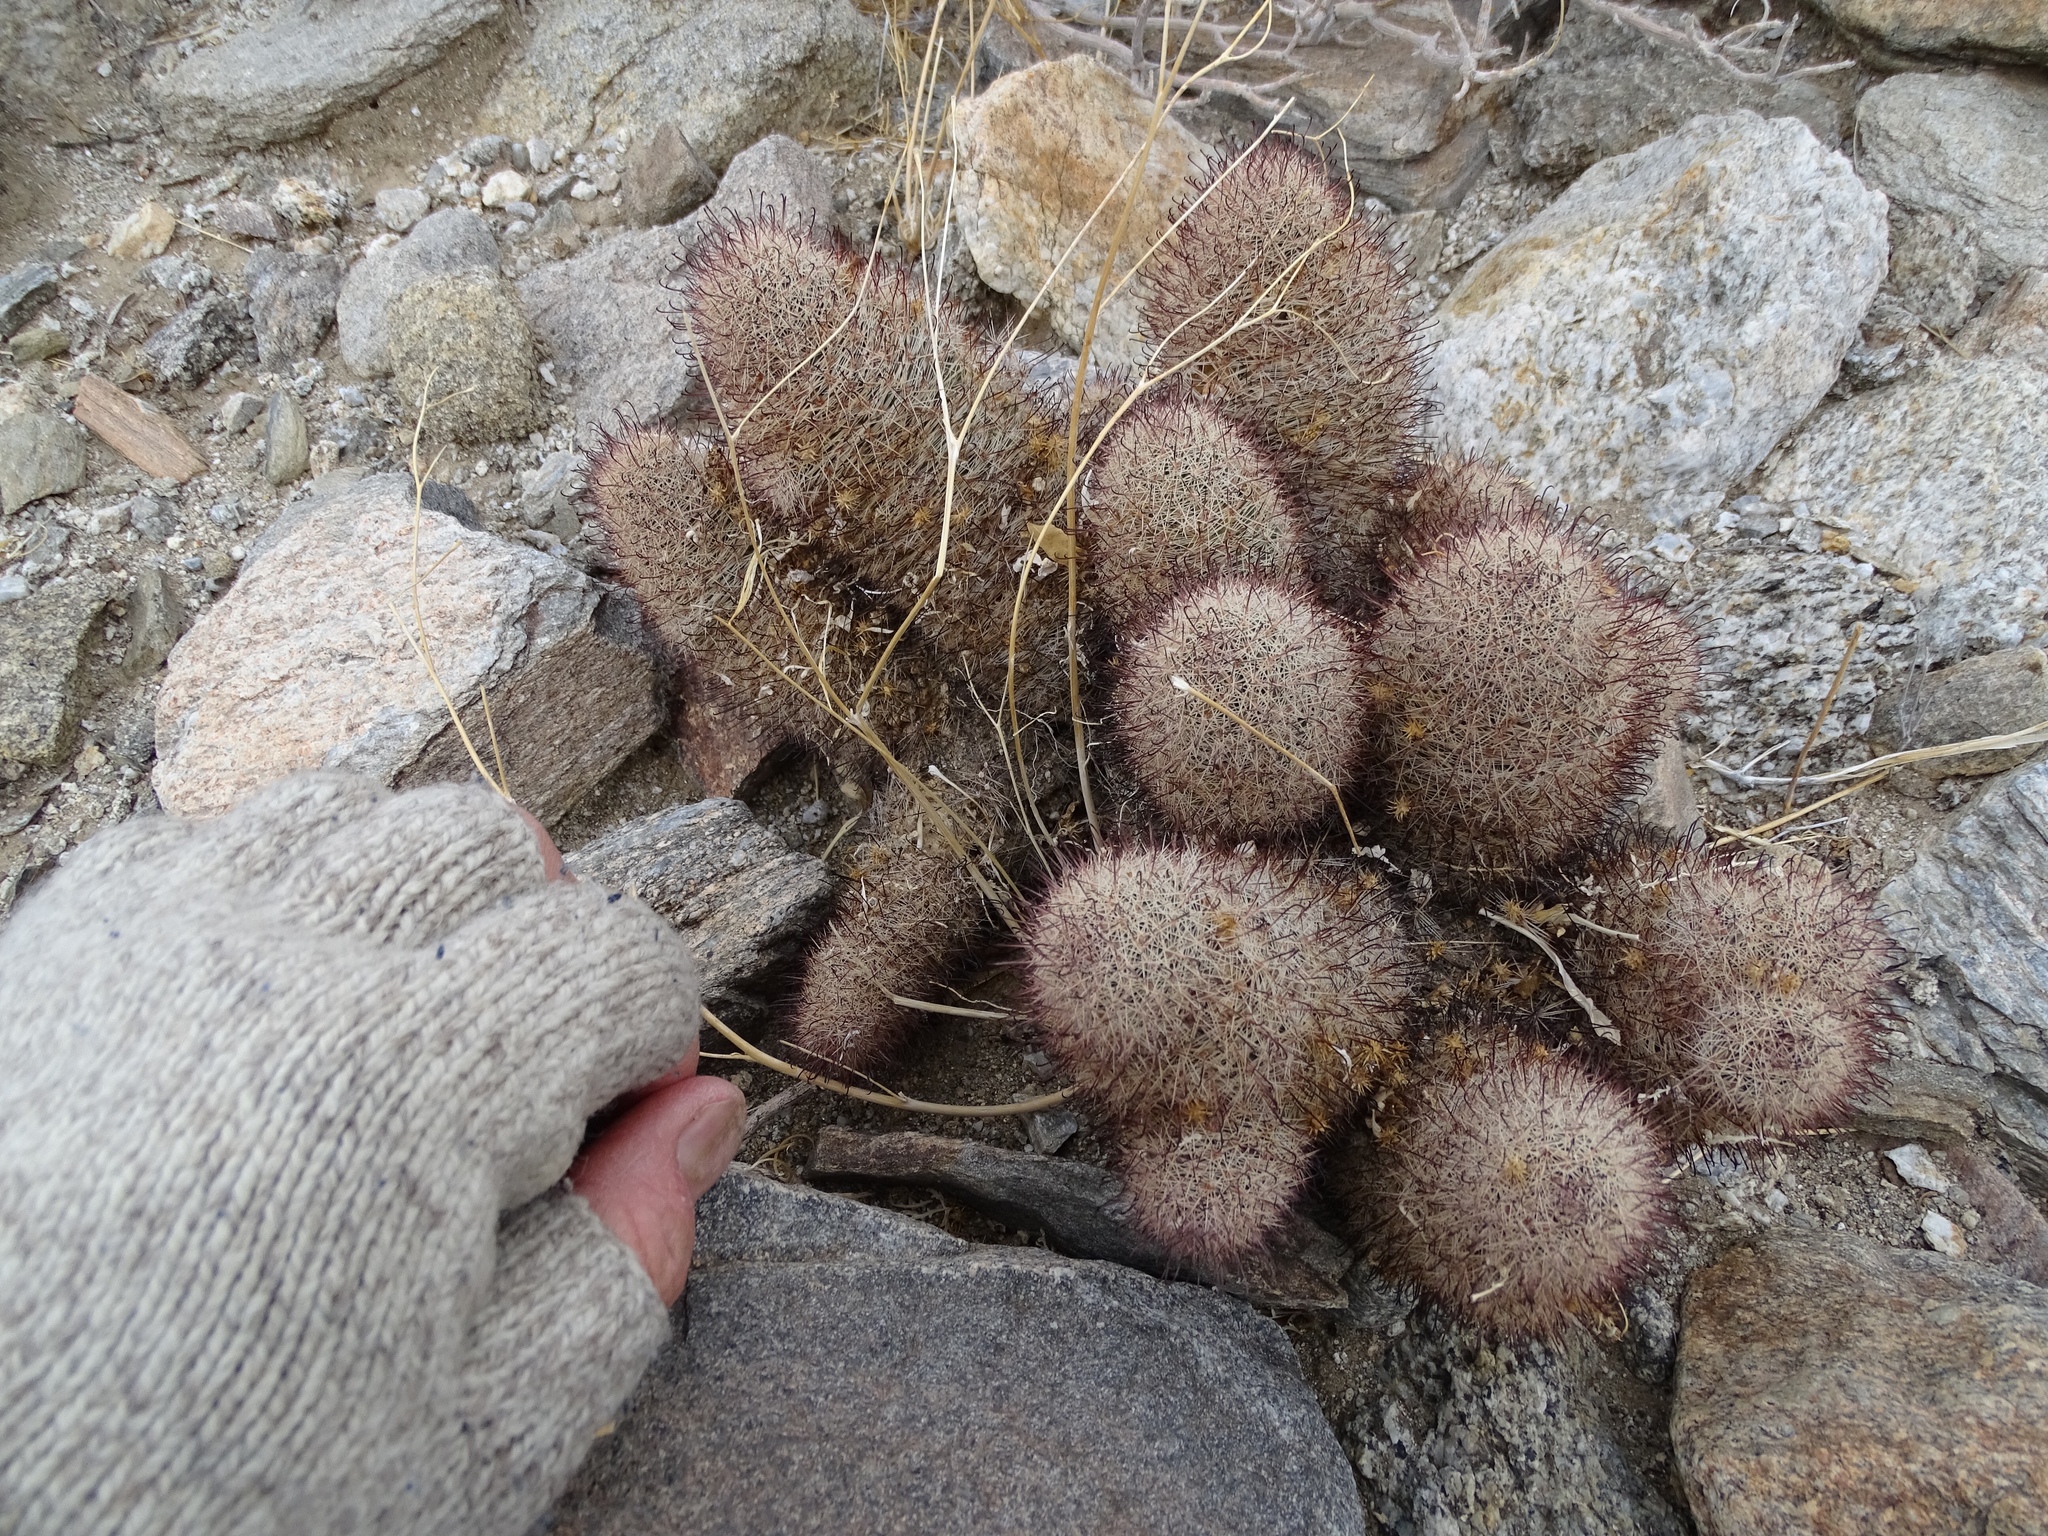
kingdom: Plantae
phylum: Tracheophyta
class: Magnoliopsida
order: Caryophyllales
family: Cactaceae
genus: Cochemiea
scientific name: Cochemiea dioica
